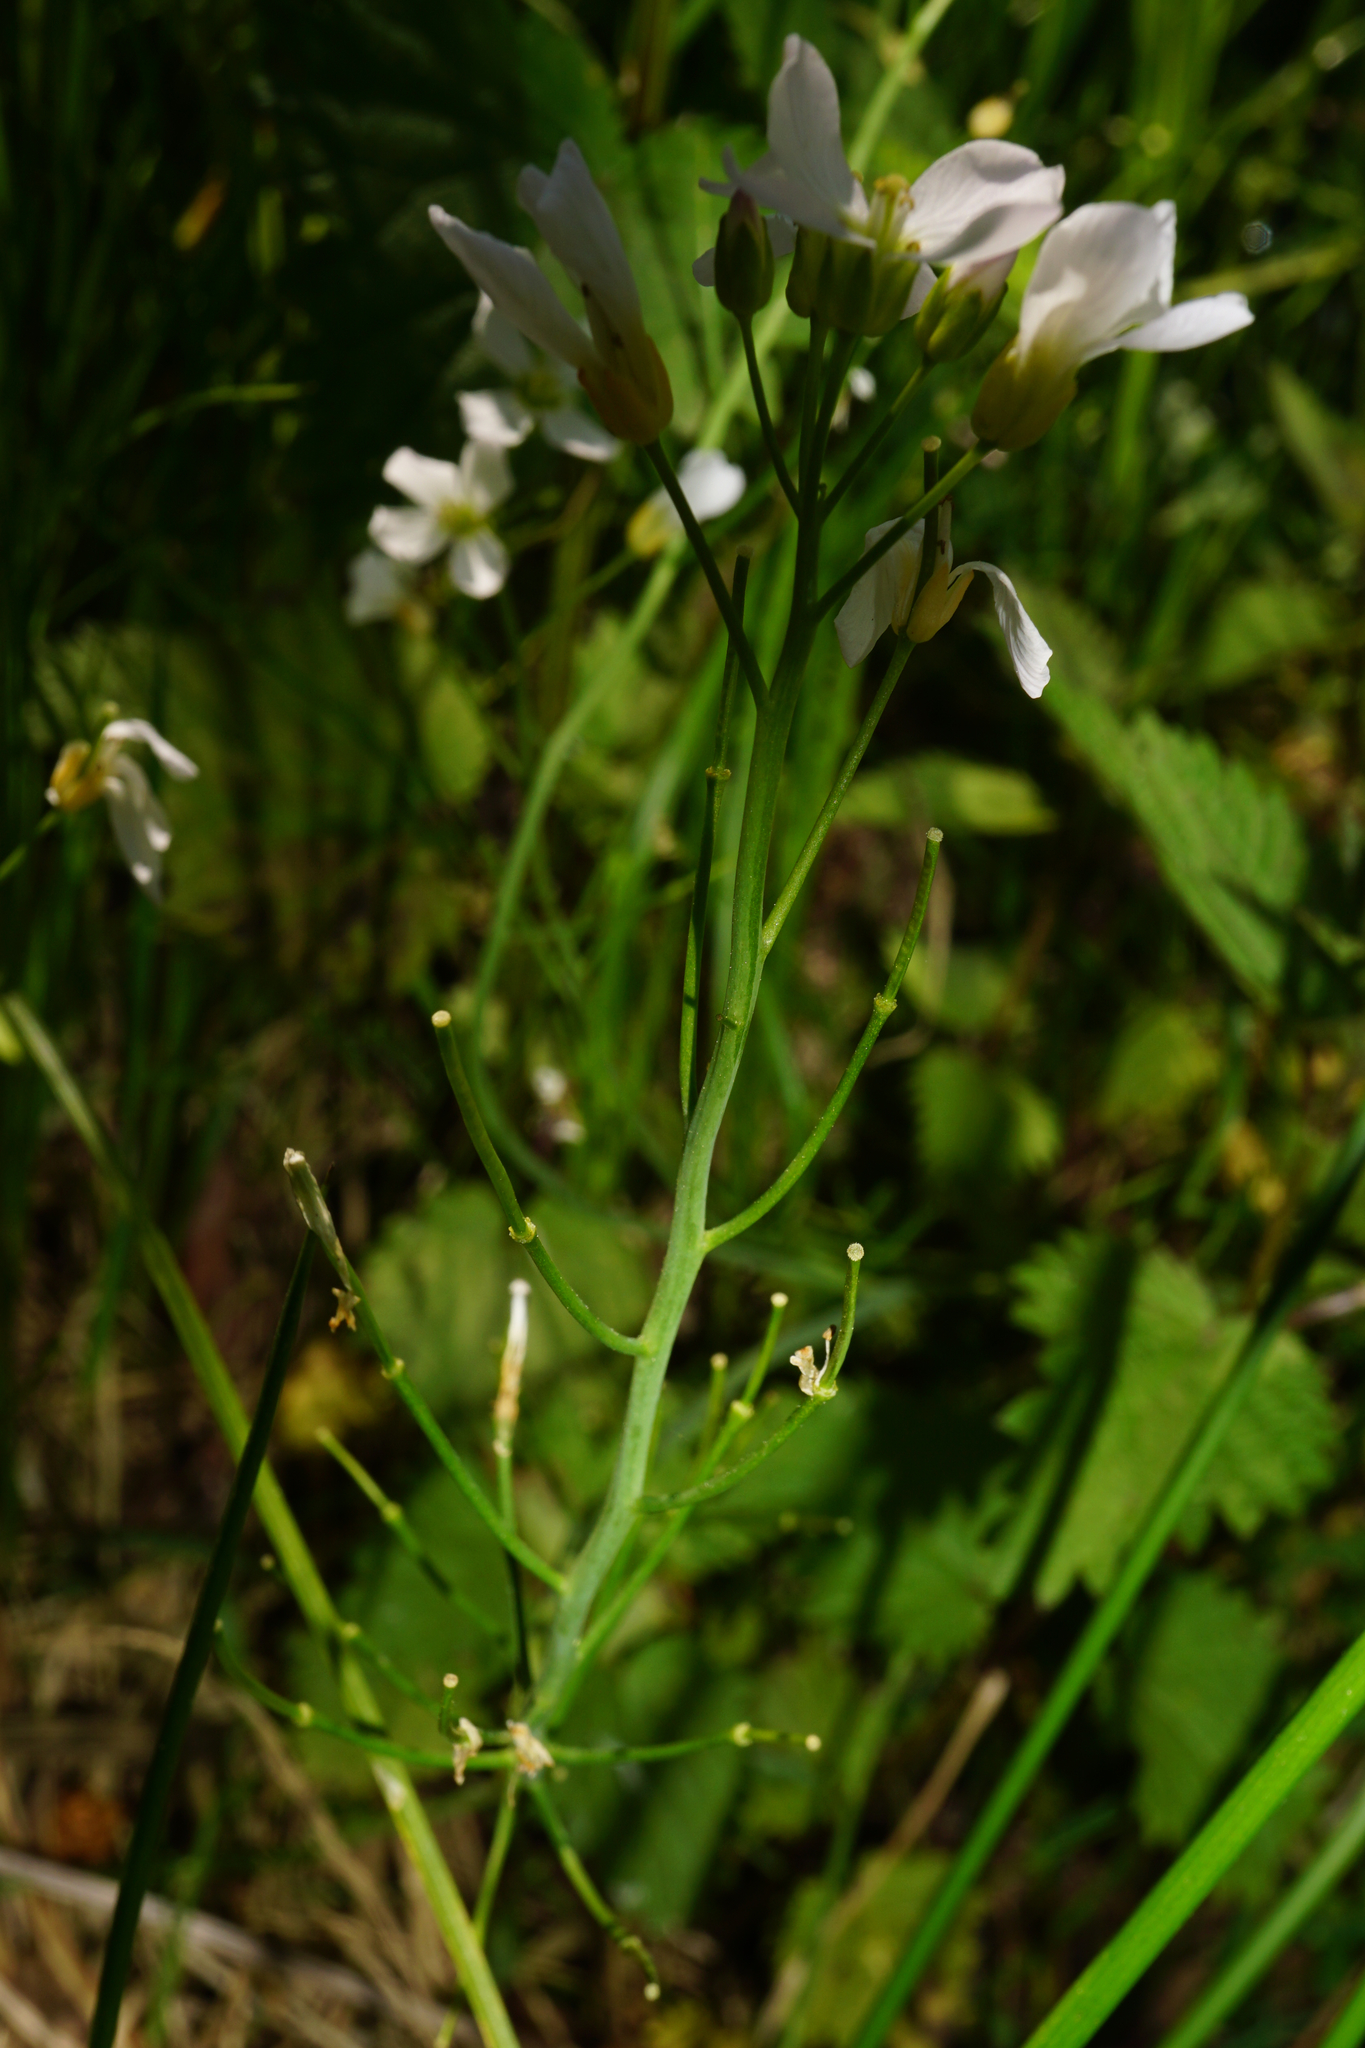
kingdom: Plantae
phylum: Tracheophyta
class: Magnoliopsida
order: Brassicales
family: Brassicaceae
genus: Cardamine
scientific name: Cardamine pratensis
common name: Cuckoo flower
